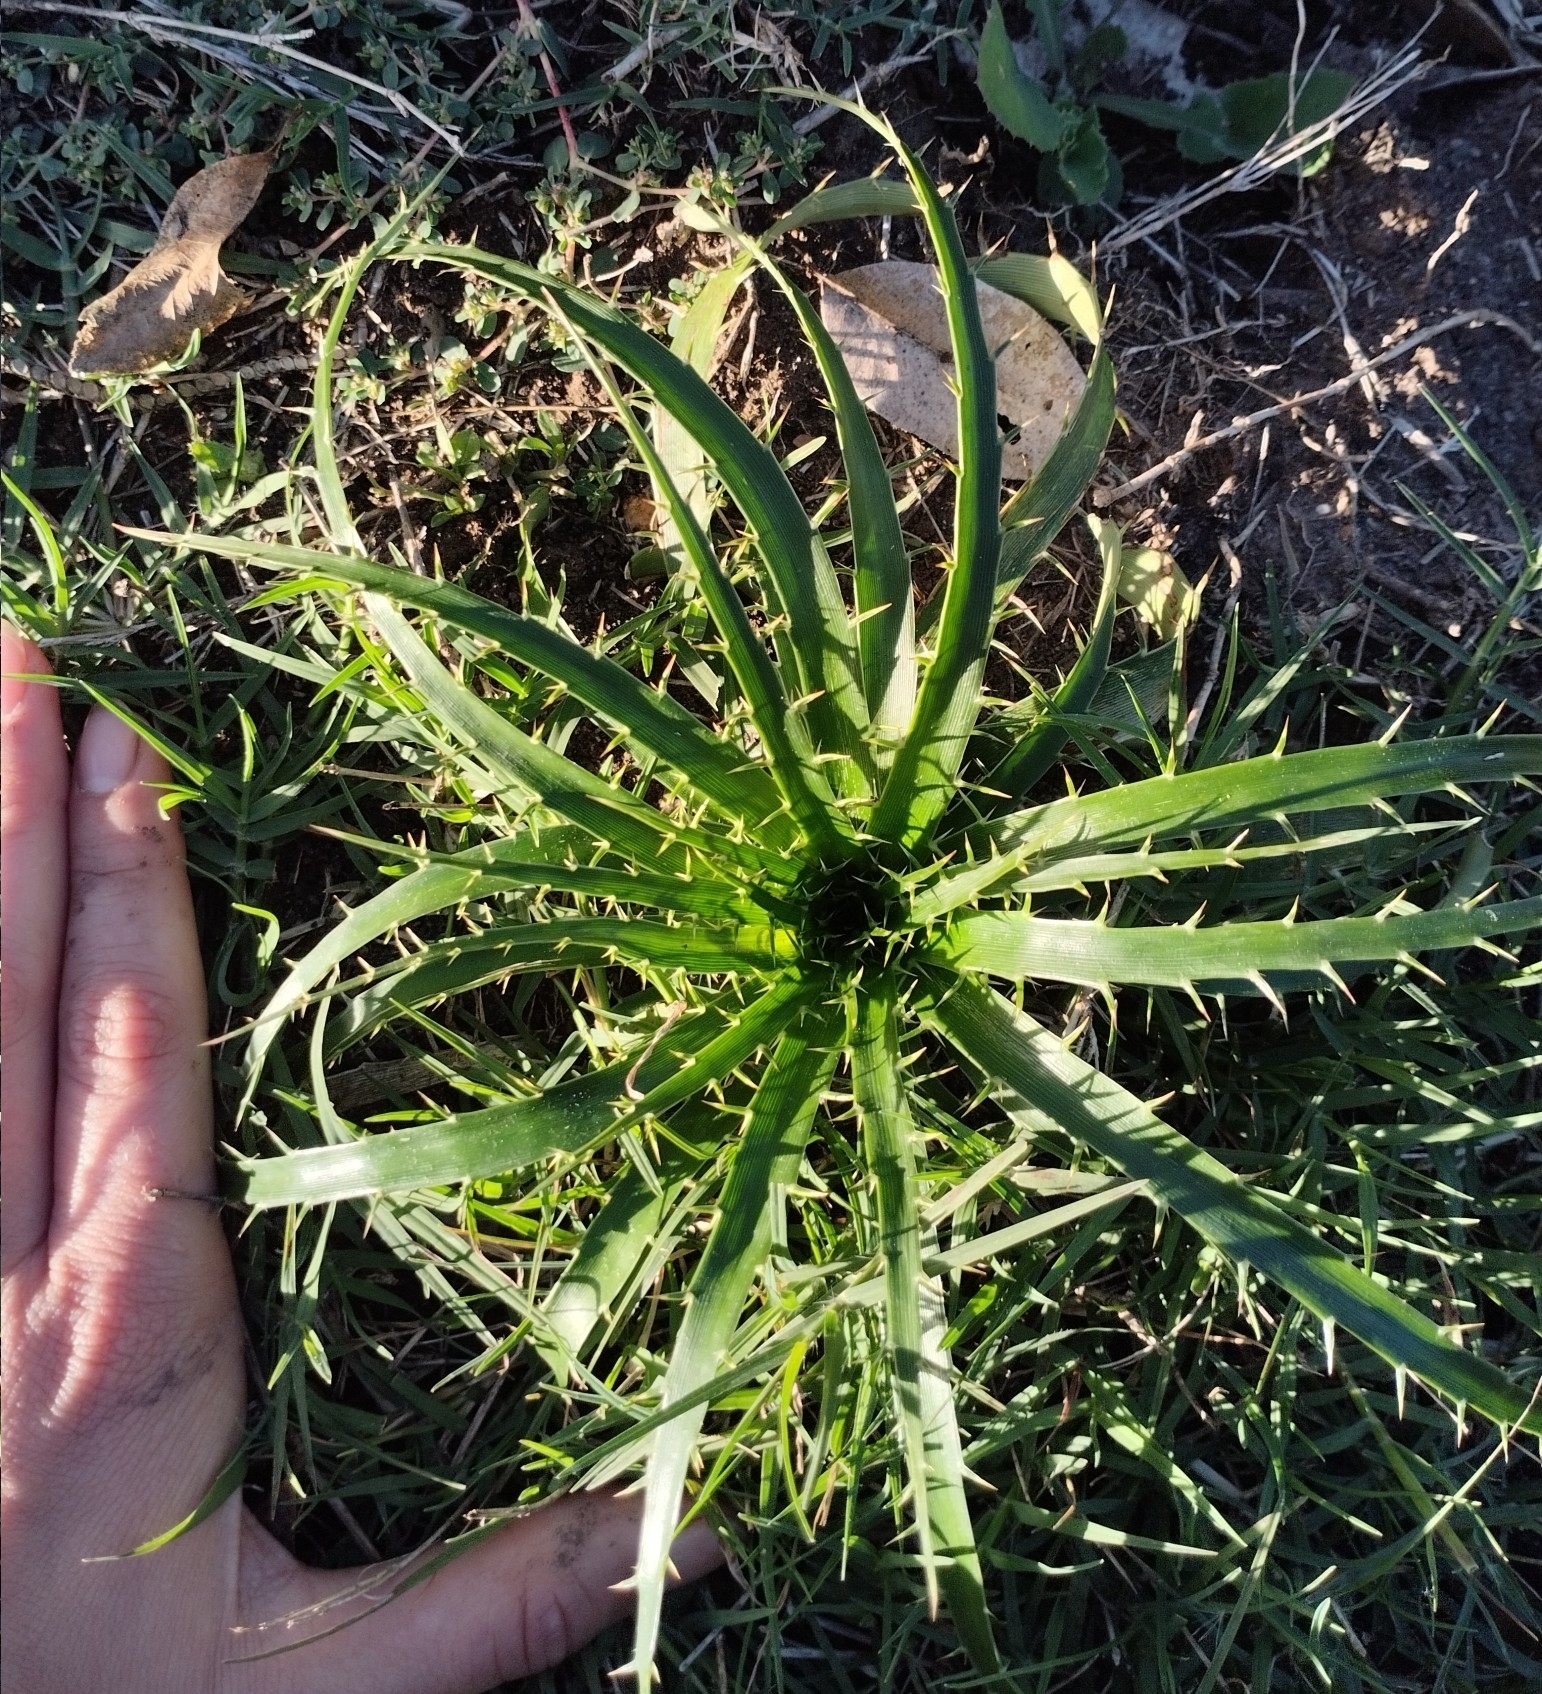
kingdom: Plantae
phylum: Tracheophyta
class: Magnoliopsida
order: Apiales
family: Apiaceae
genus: Eryngium
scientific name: Eryngium horridum
